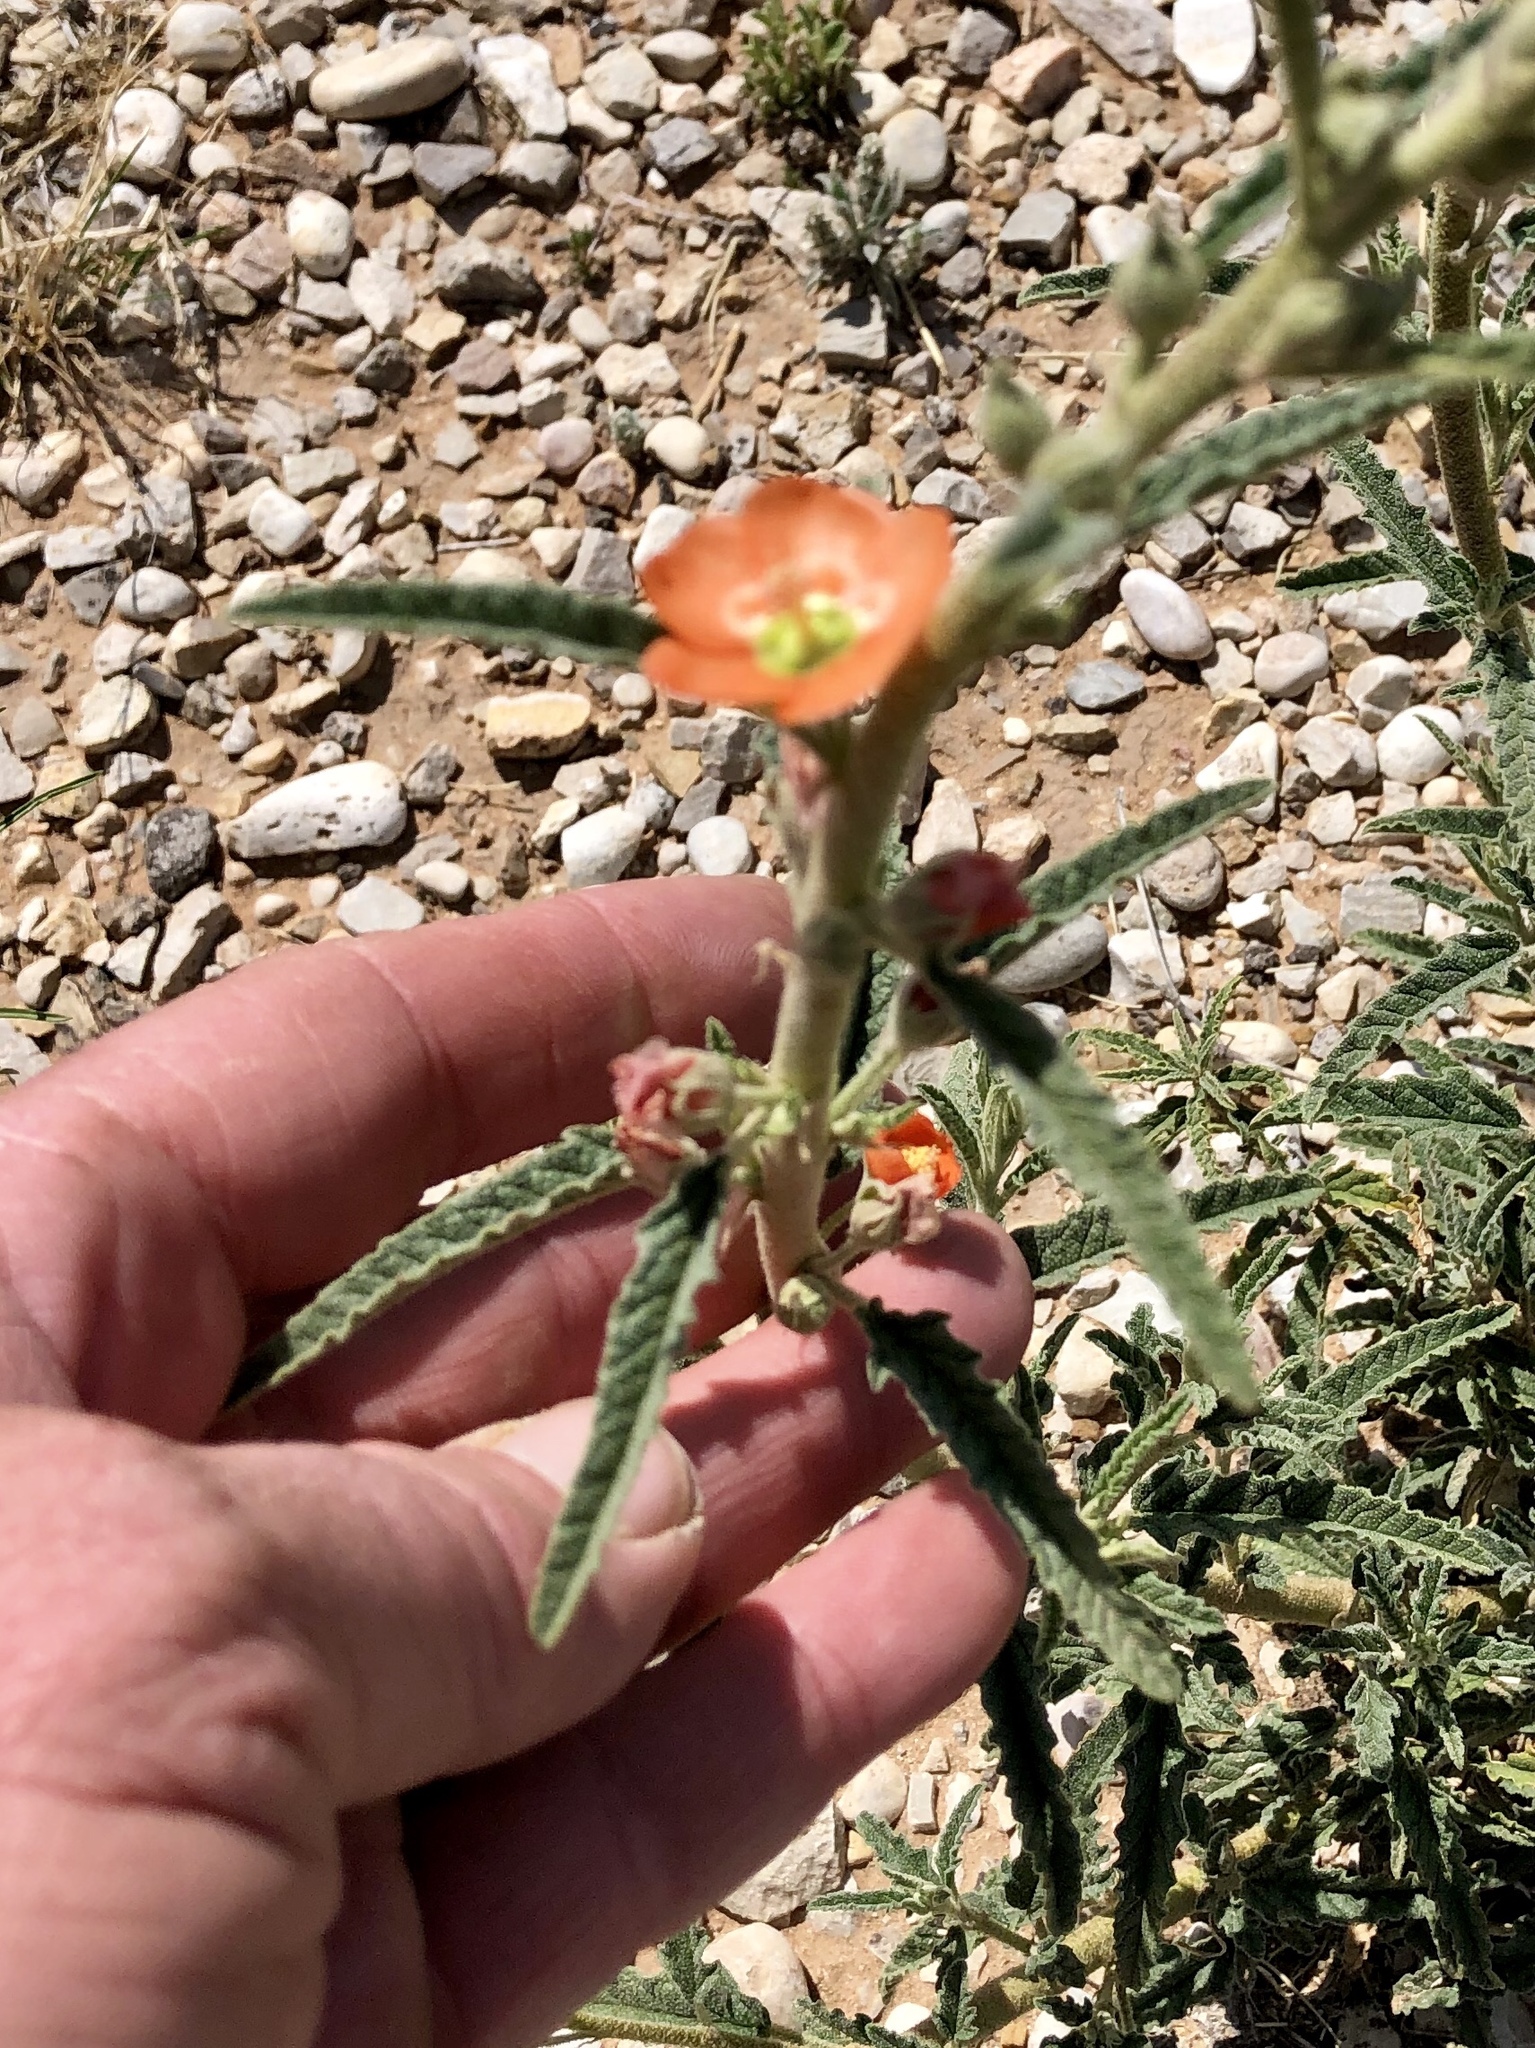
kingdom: Plantae
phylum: Tracheophyta
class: Magnoliopsida
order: Malvales
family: Malvaceae
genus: Sphaeralcea
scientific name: Sphaeralcea angustifolia
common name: Copper globe-mallow
